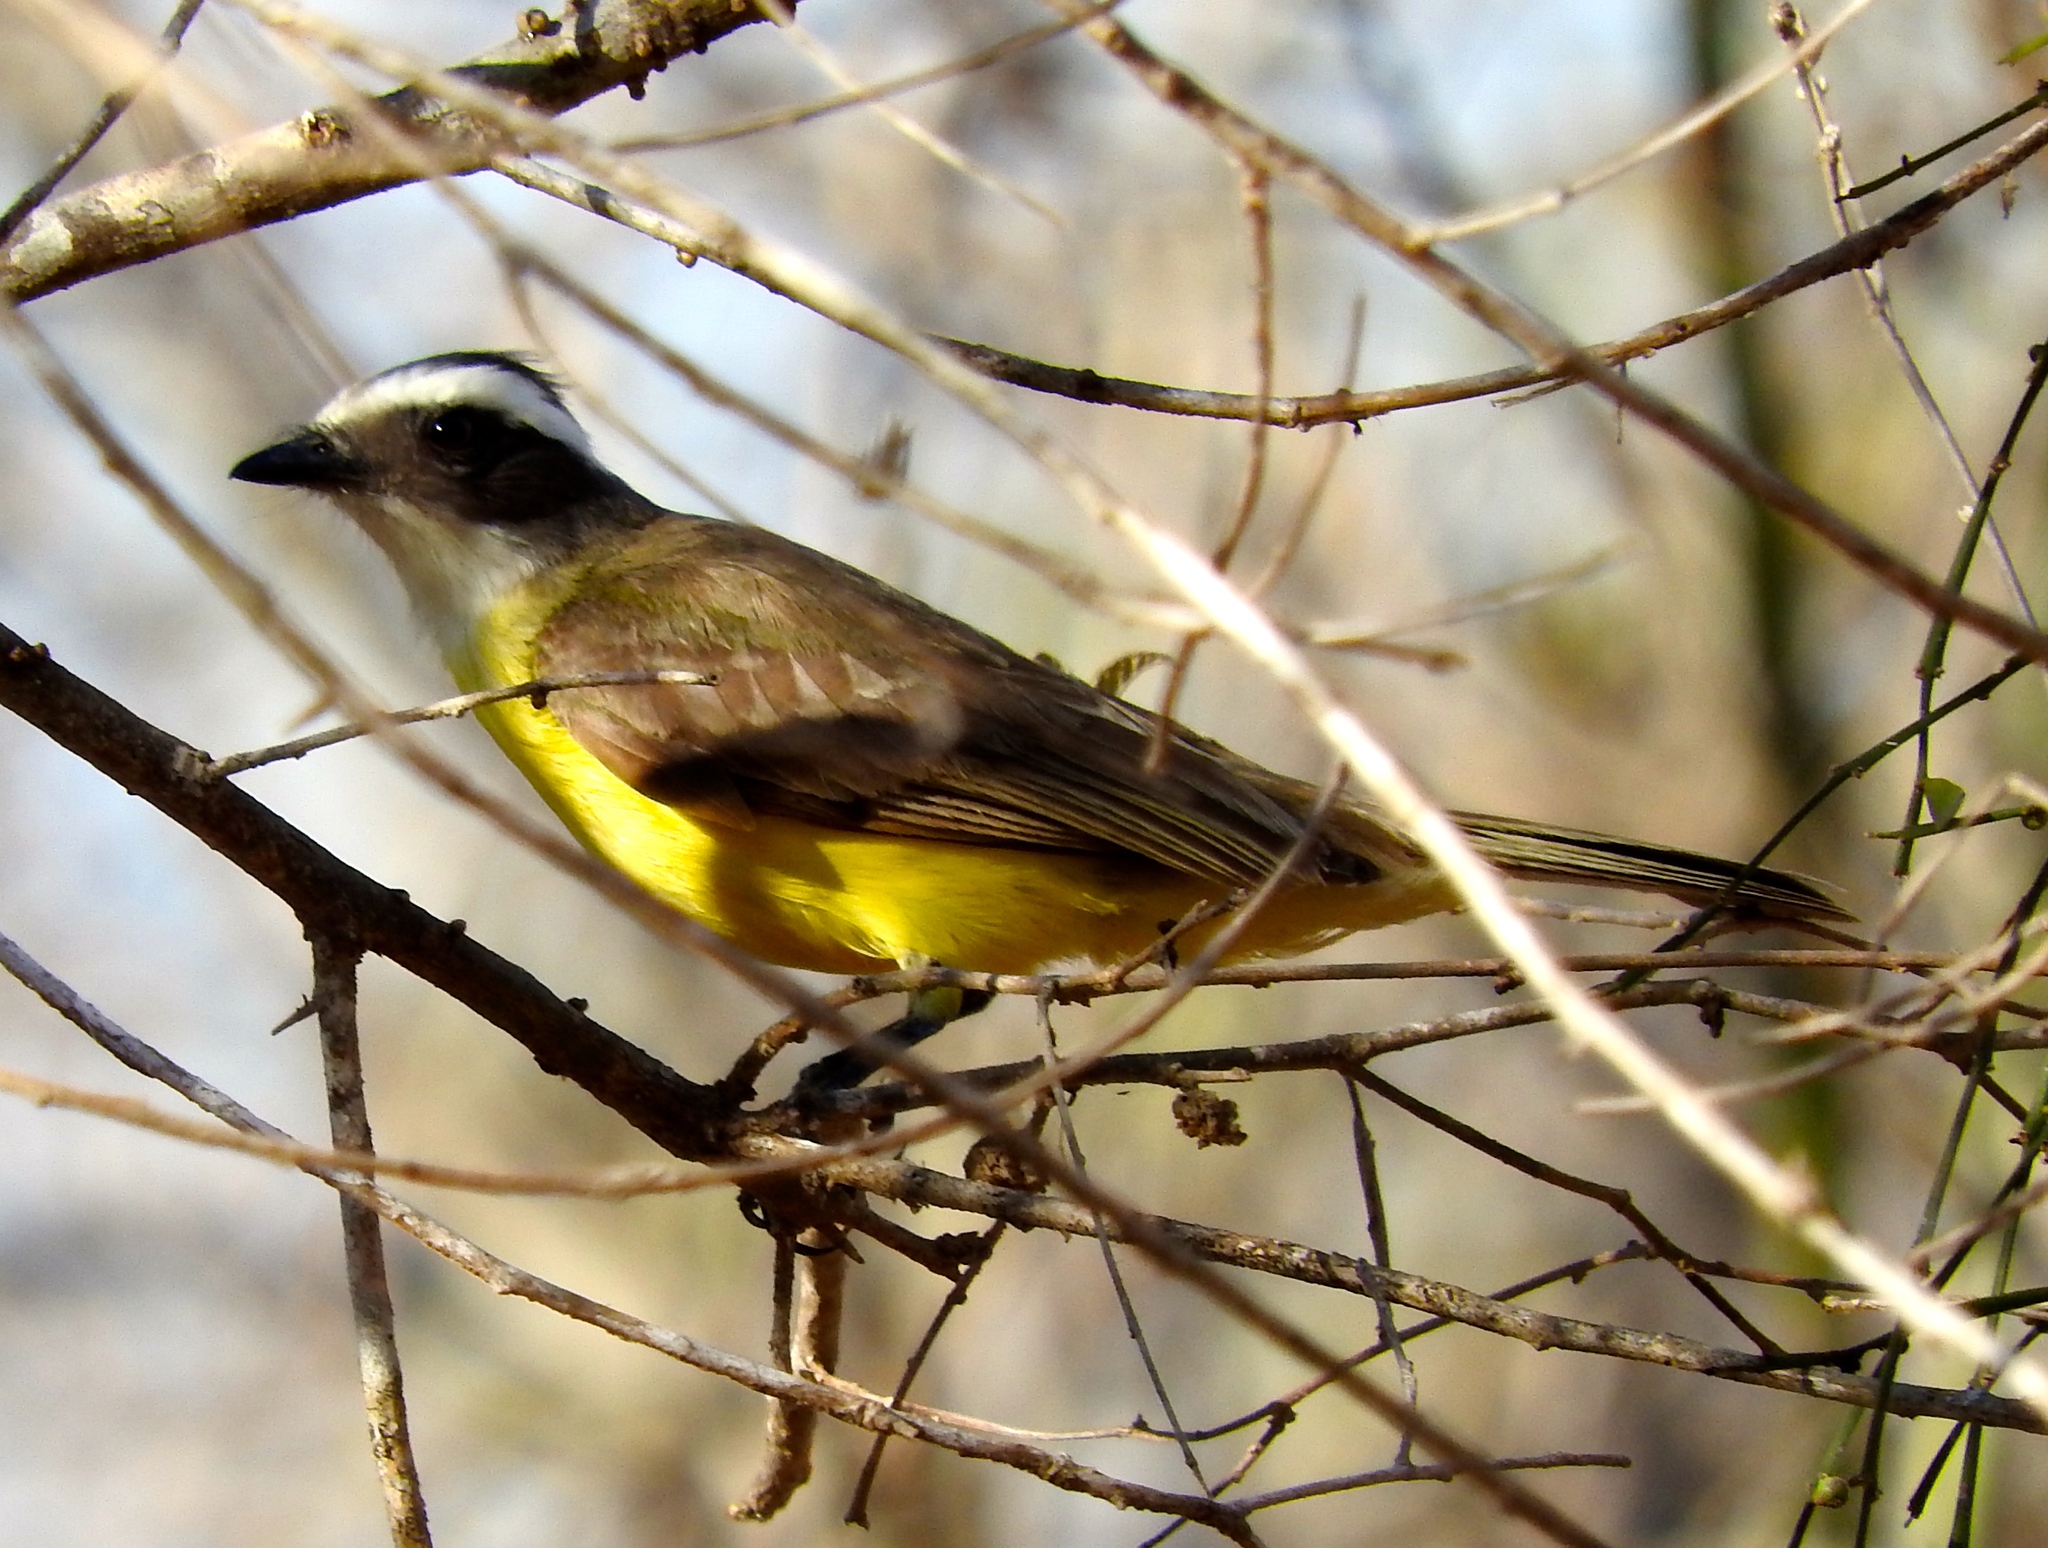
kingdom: Animalia
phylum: Chordata
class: Aves
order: Passeriformes
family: Tyrannidae
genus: Myiozetetes
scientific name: Myiozetetes similis
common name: Social flycatcher
